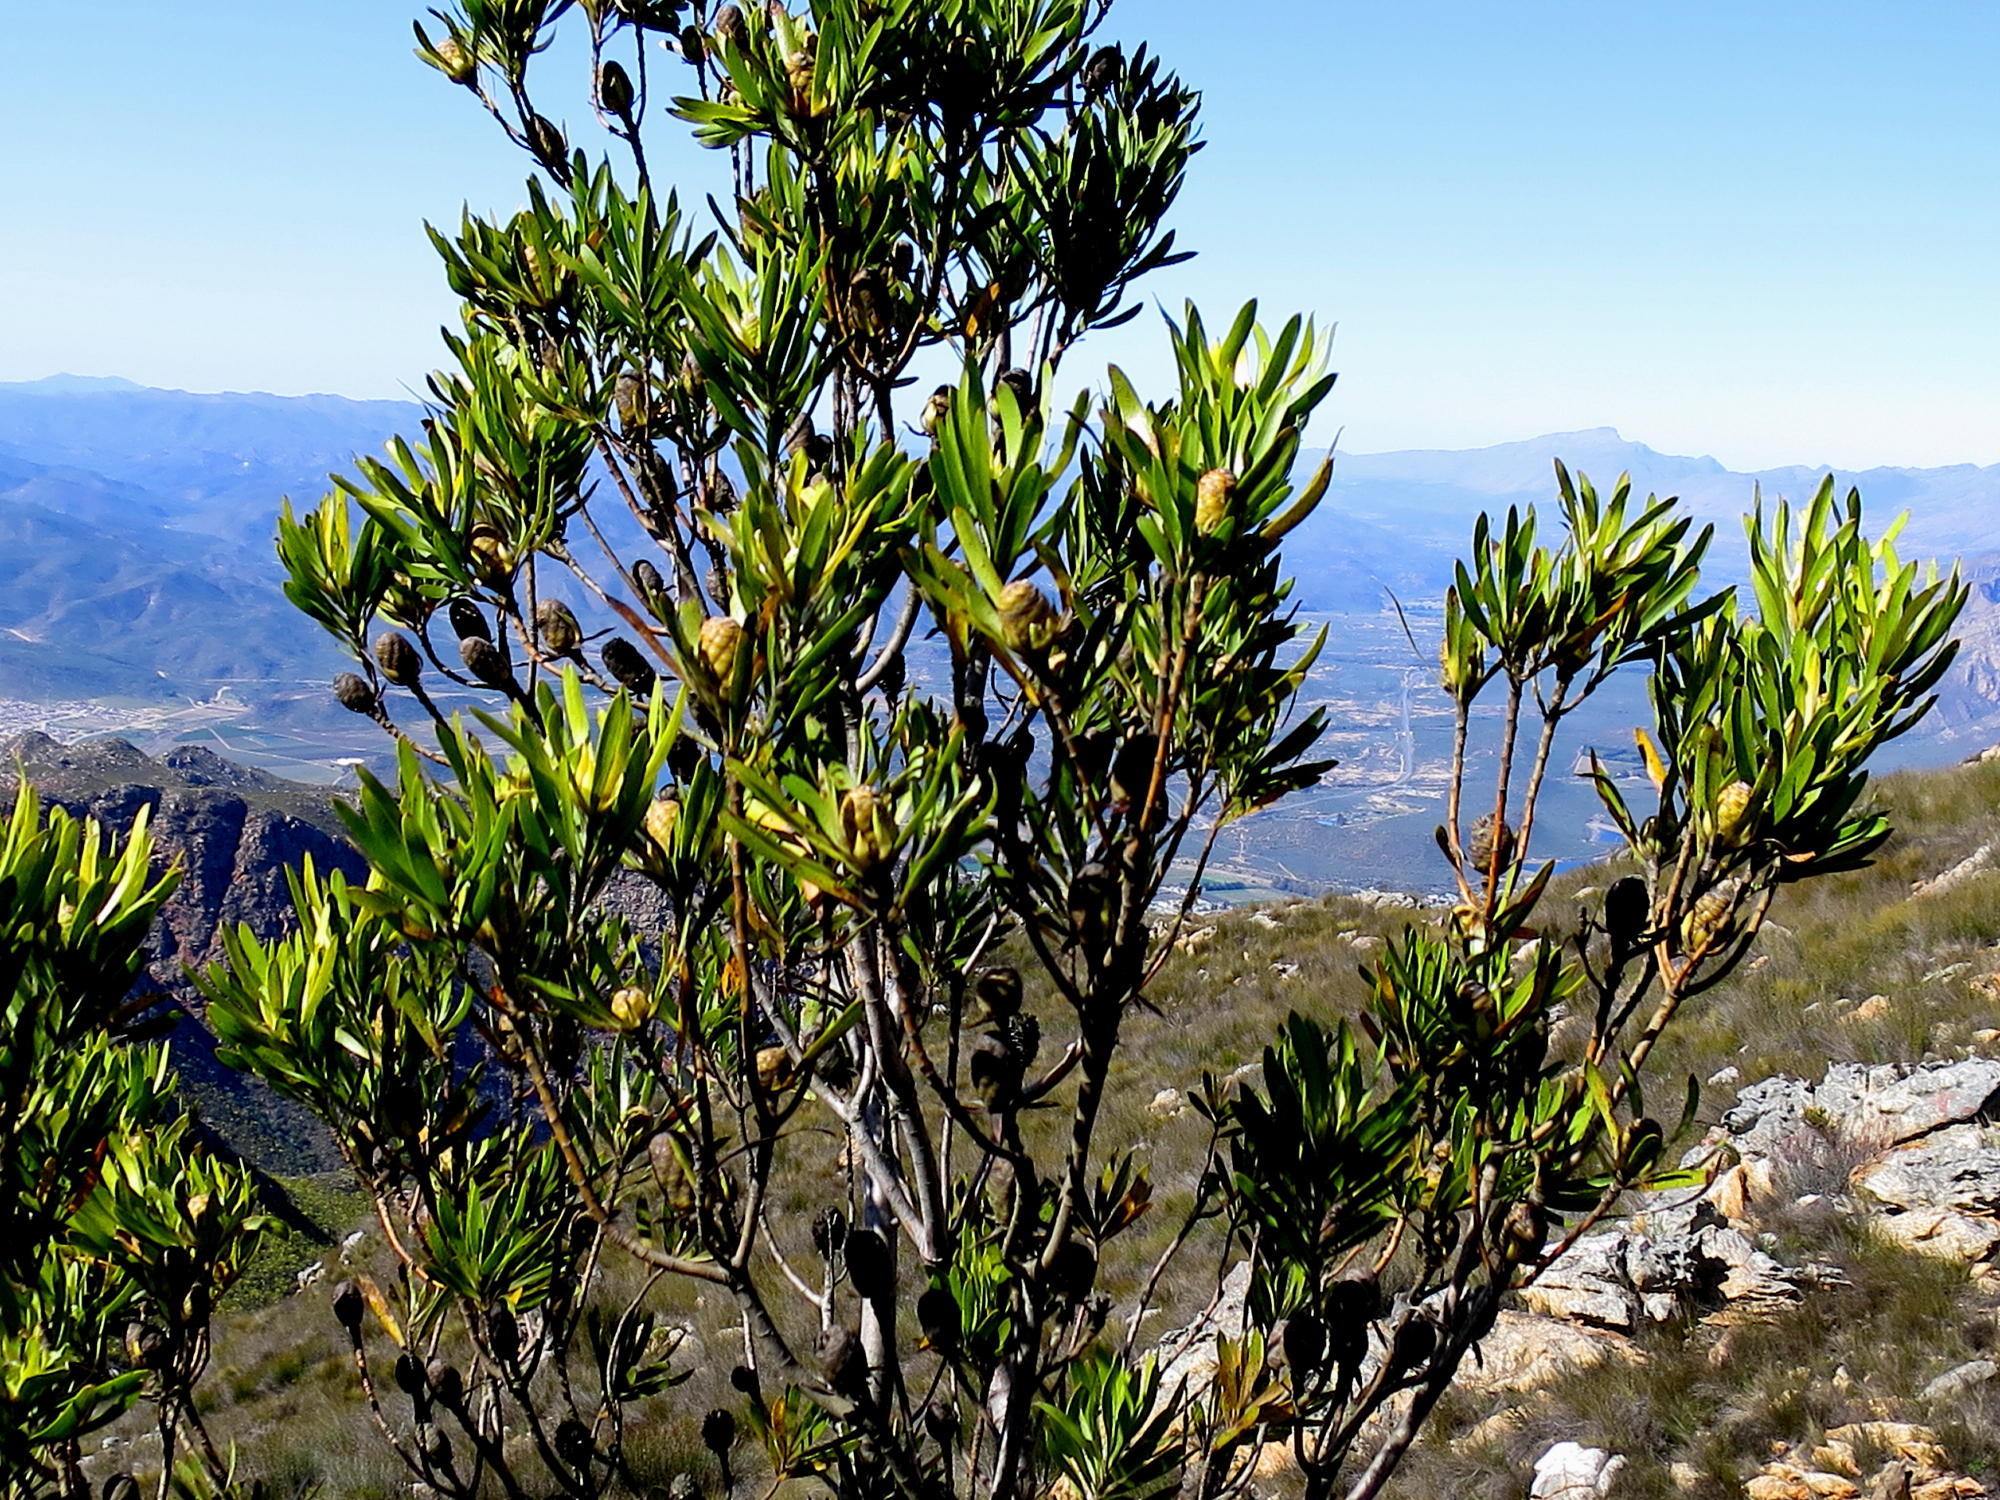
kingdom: Plantae
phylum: Tracheophyta
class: Magnoliopsida
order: Proteales
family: Proteaceae
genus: Leucadendron
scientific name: Leucadendron eucalyptifolium
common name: Gum-leaved conebush
